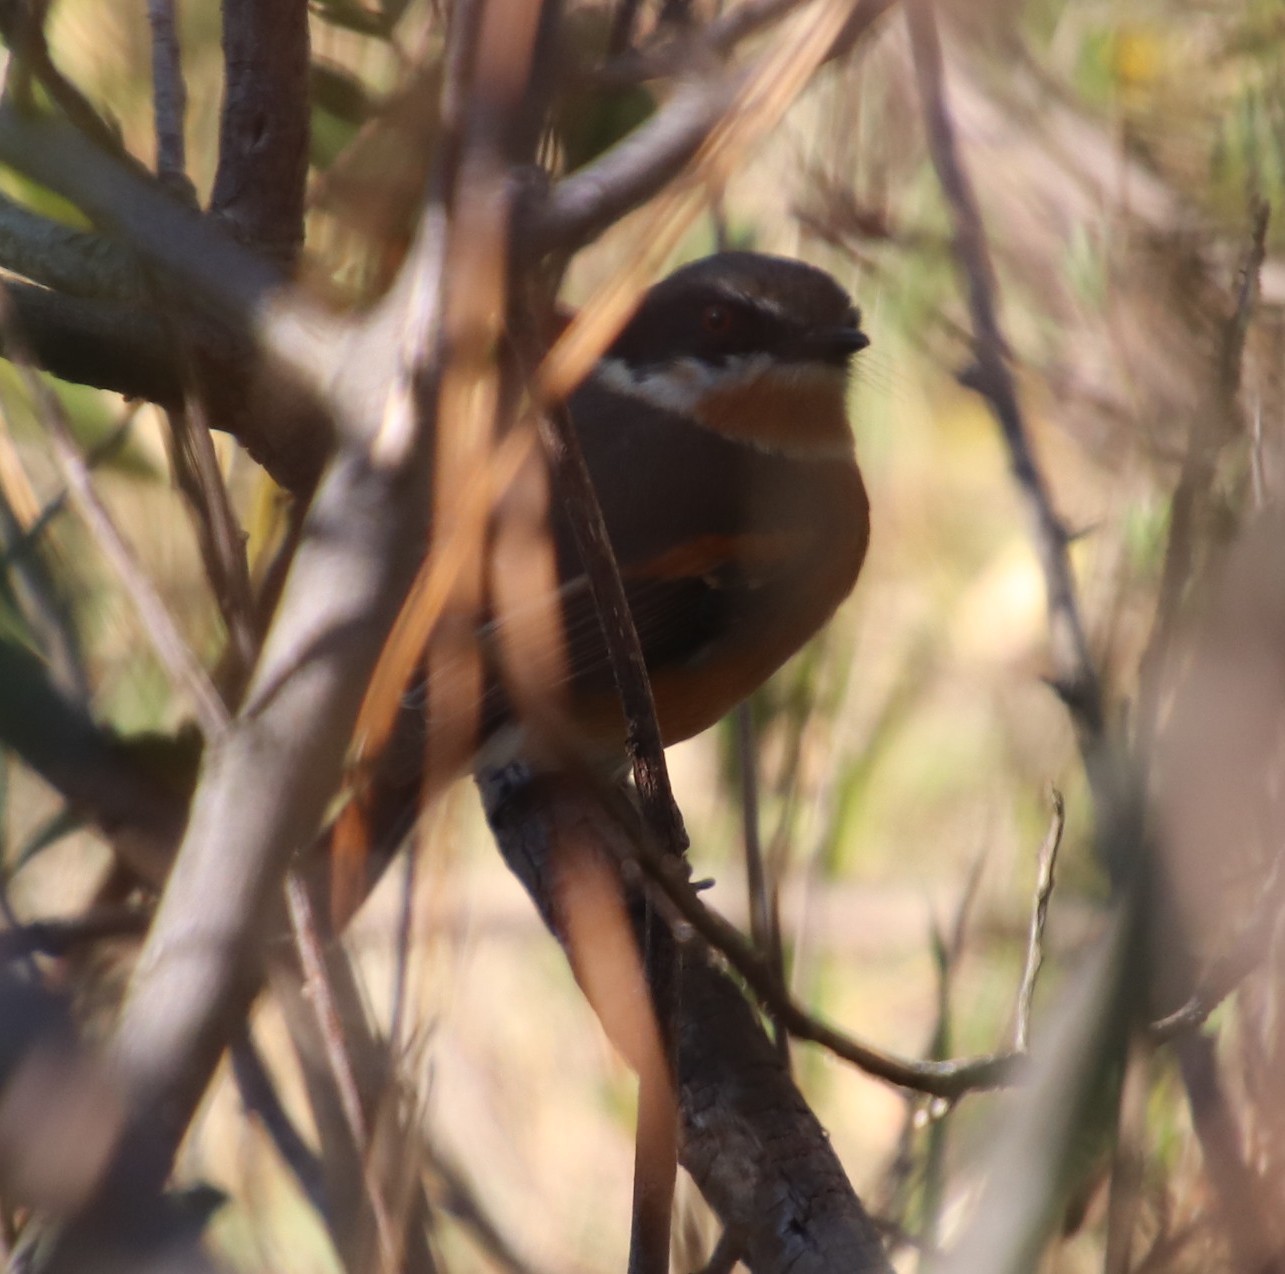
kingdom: Animalia
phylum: Chordata
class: Aves
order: Passeriformes
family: Platysteiridae
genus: Batis
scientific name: Batis capensis
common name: Cape batis
